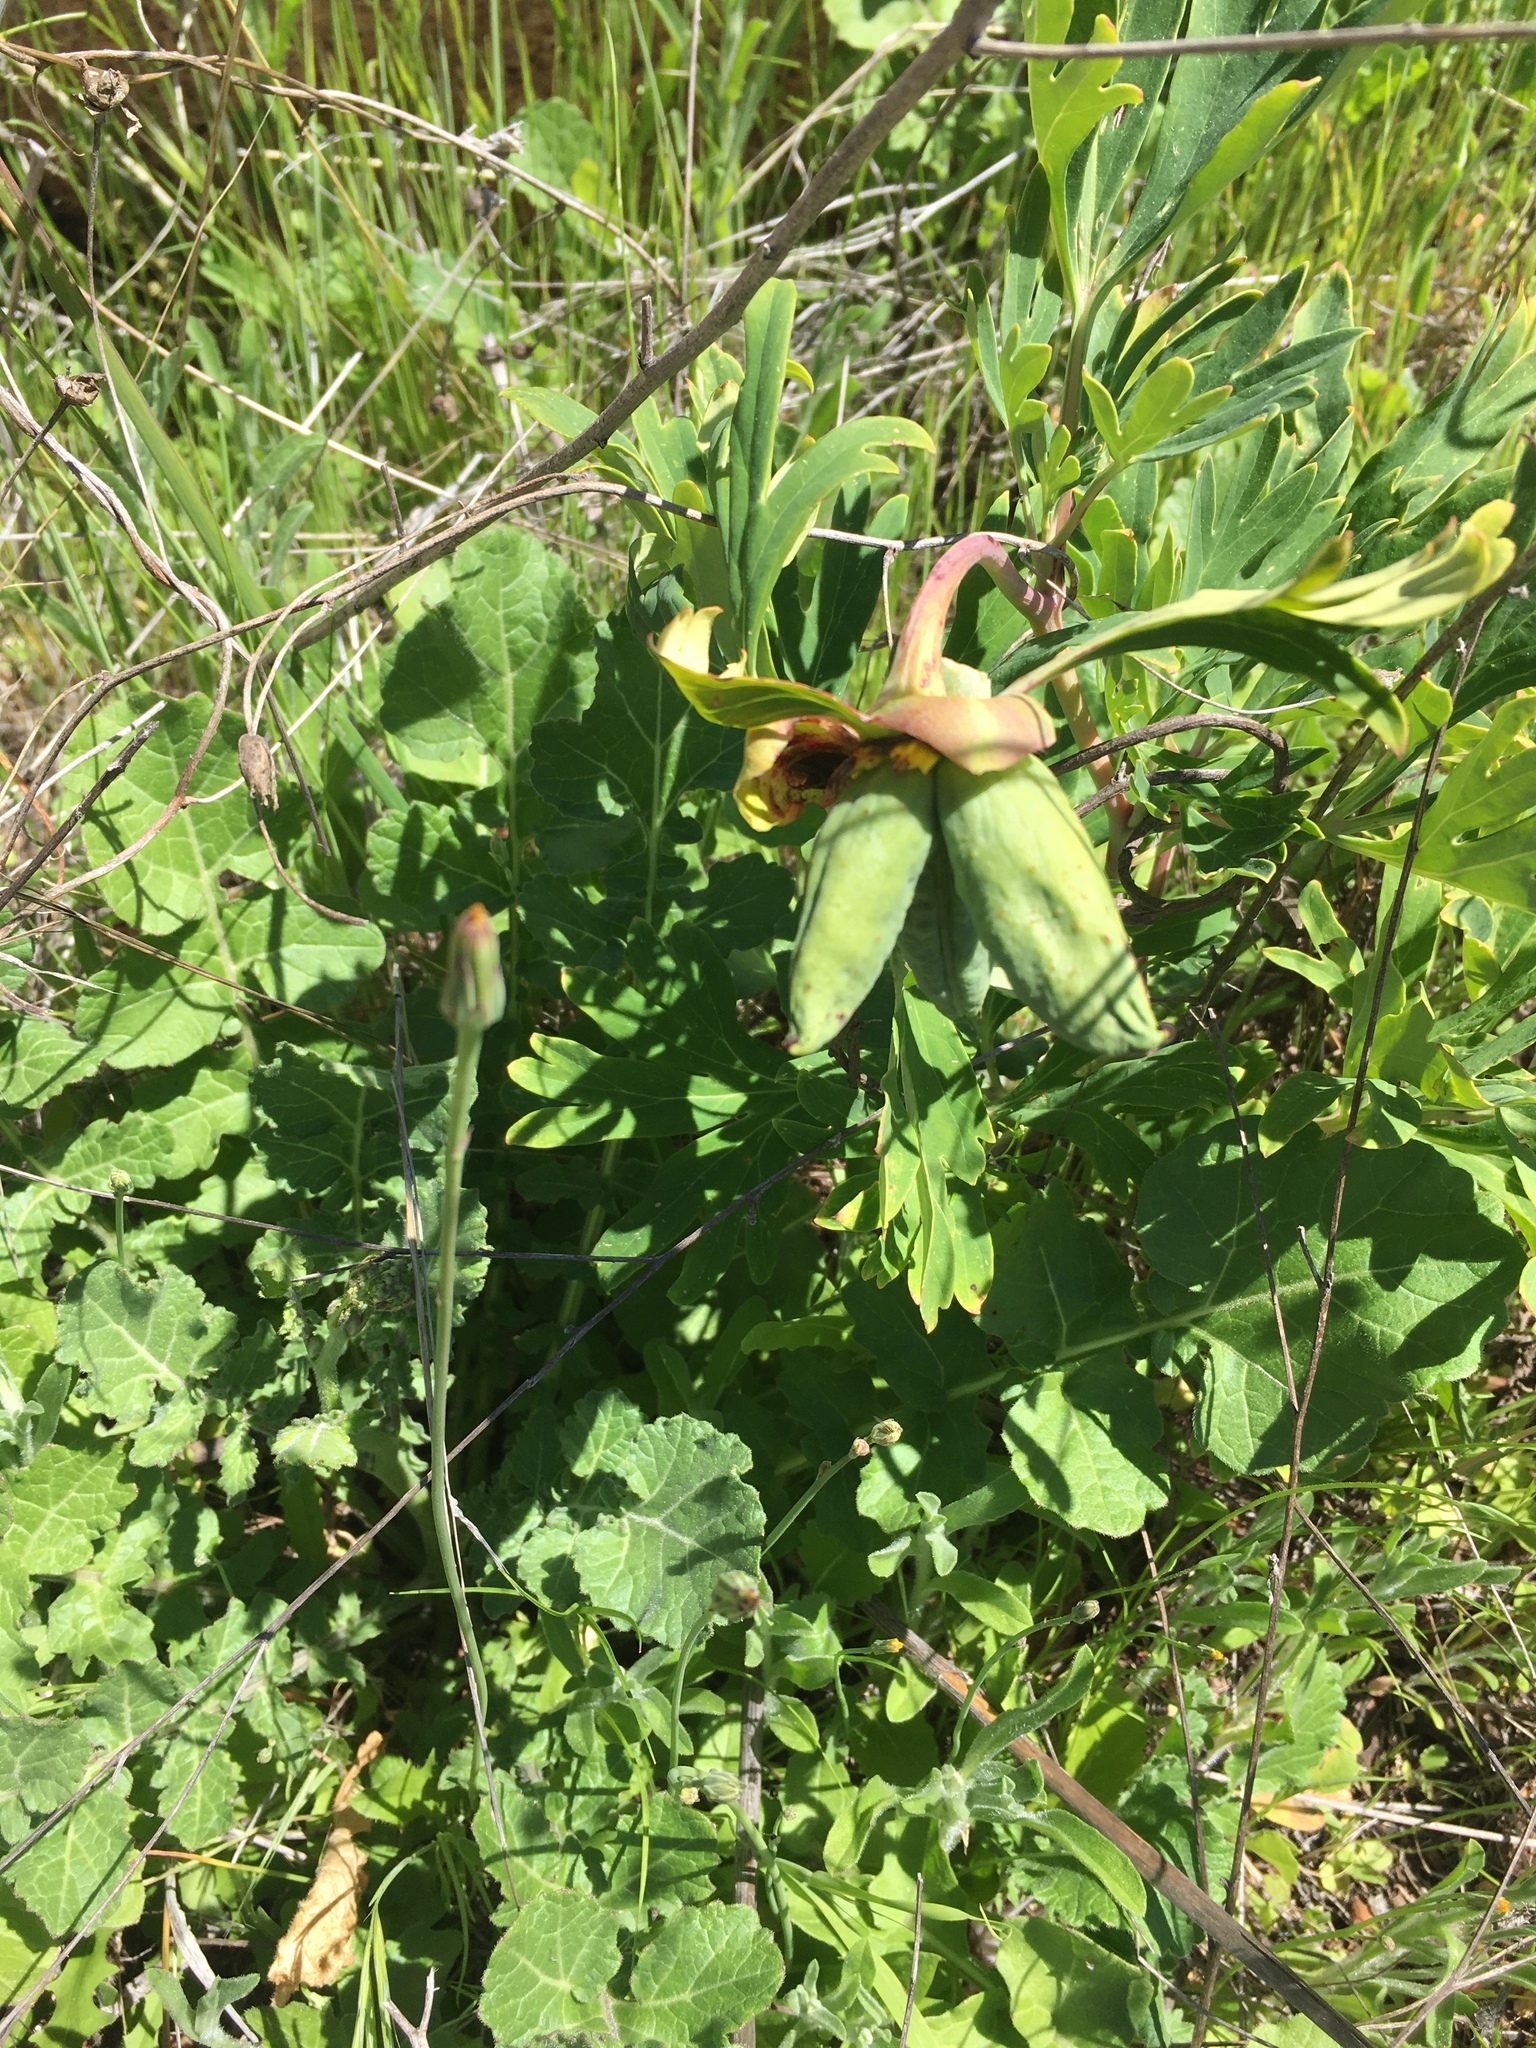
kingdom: Plantae
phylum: Tracheophyta
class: Magnoliopsida
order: Saxifragales
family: Paeoniaceae
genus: Paeonia
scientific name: Paeonia californica
